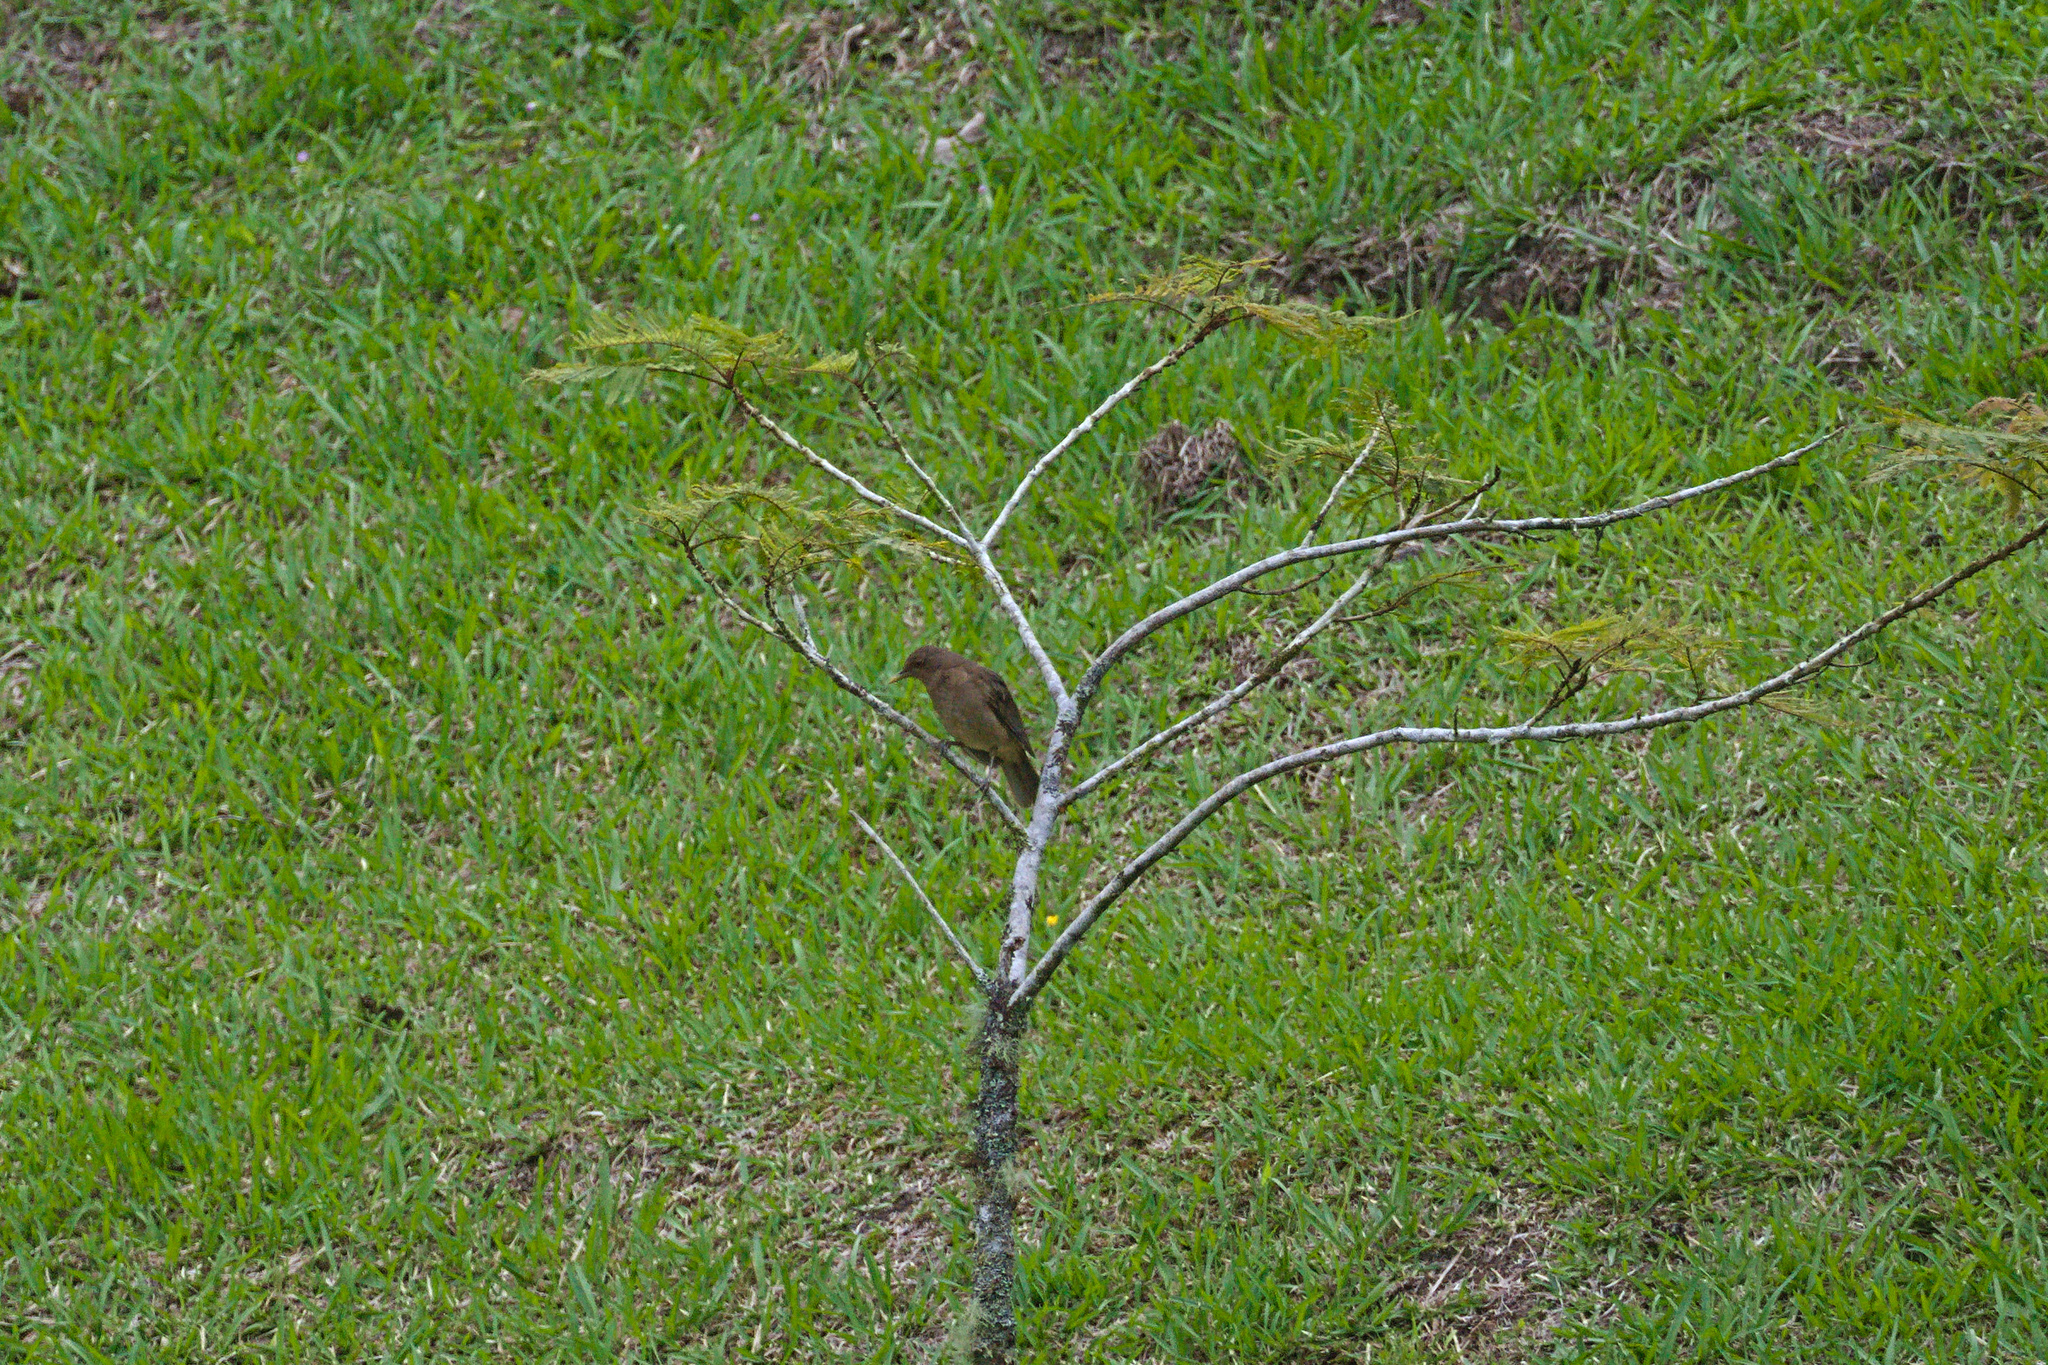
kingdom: Animalia
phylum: Chordata
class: Aves
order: Passeriformes
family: Turdidae
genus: Turdus
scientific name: Turdus grayi
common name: Clay-colored thrush
